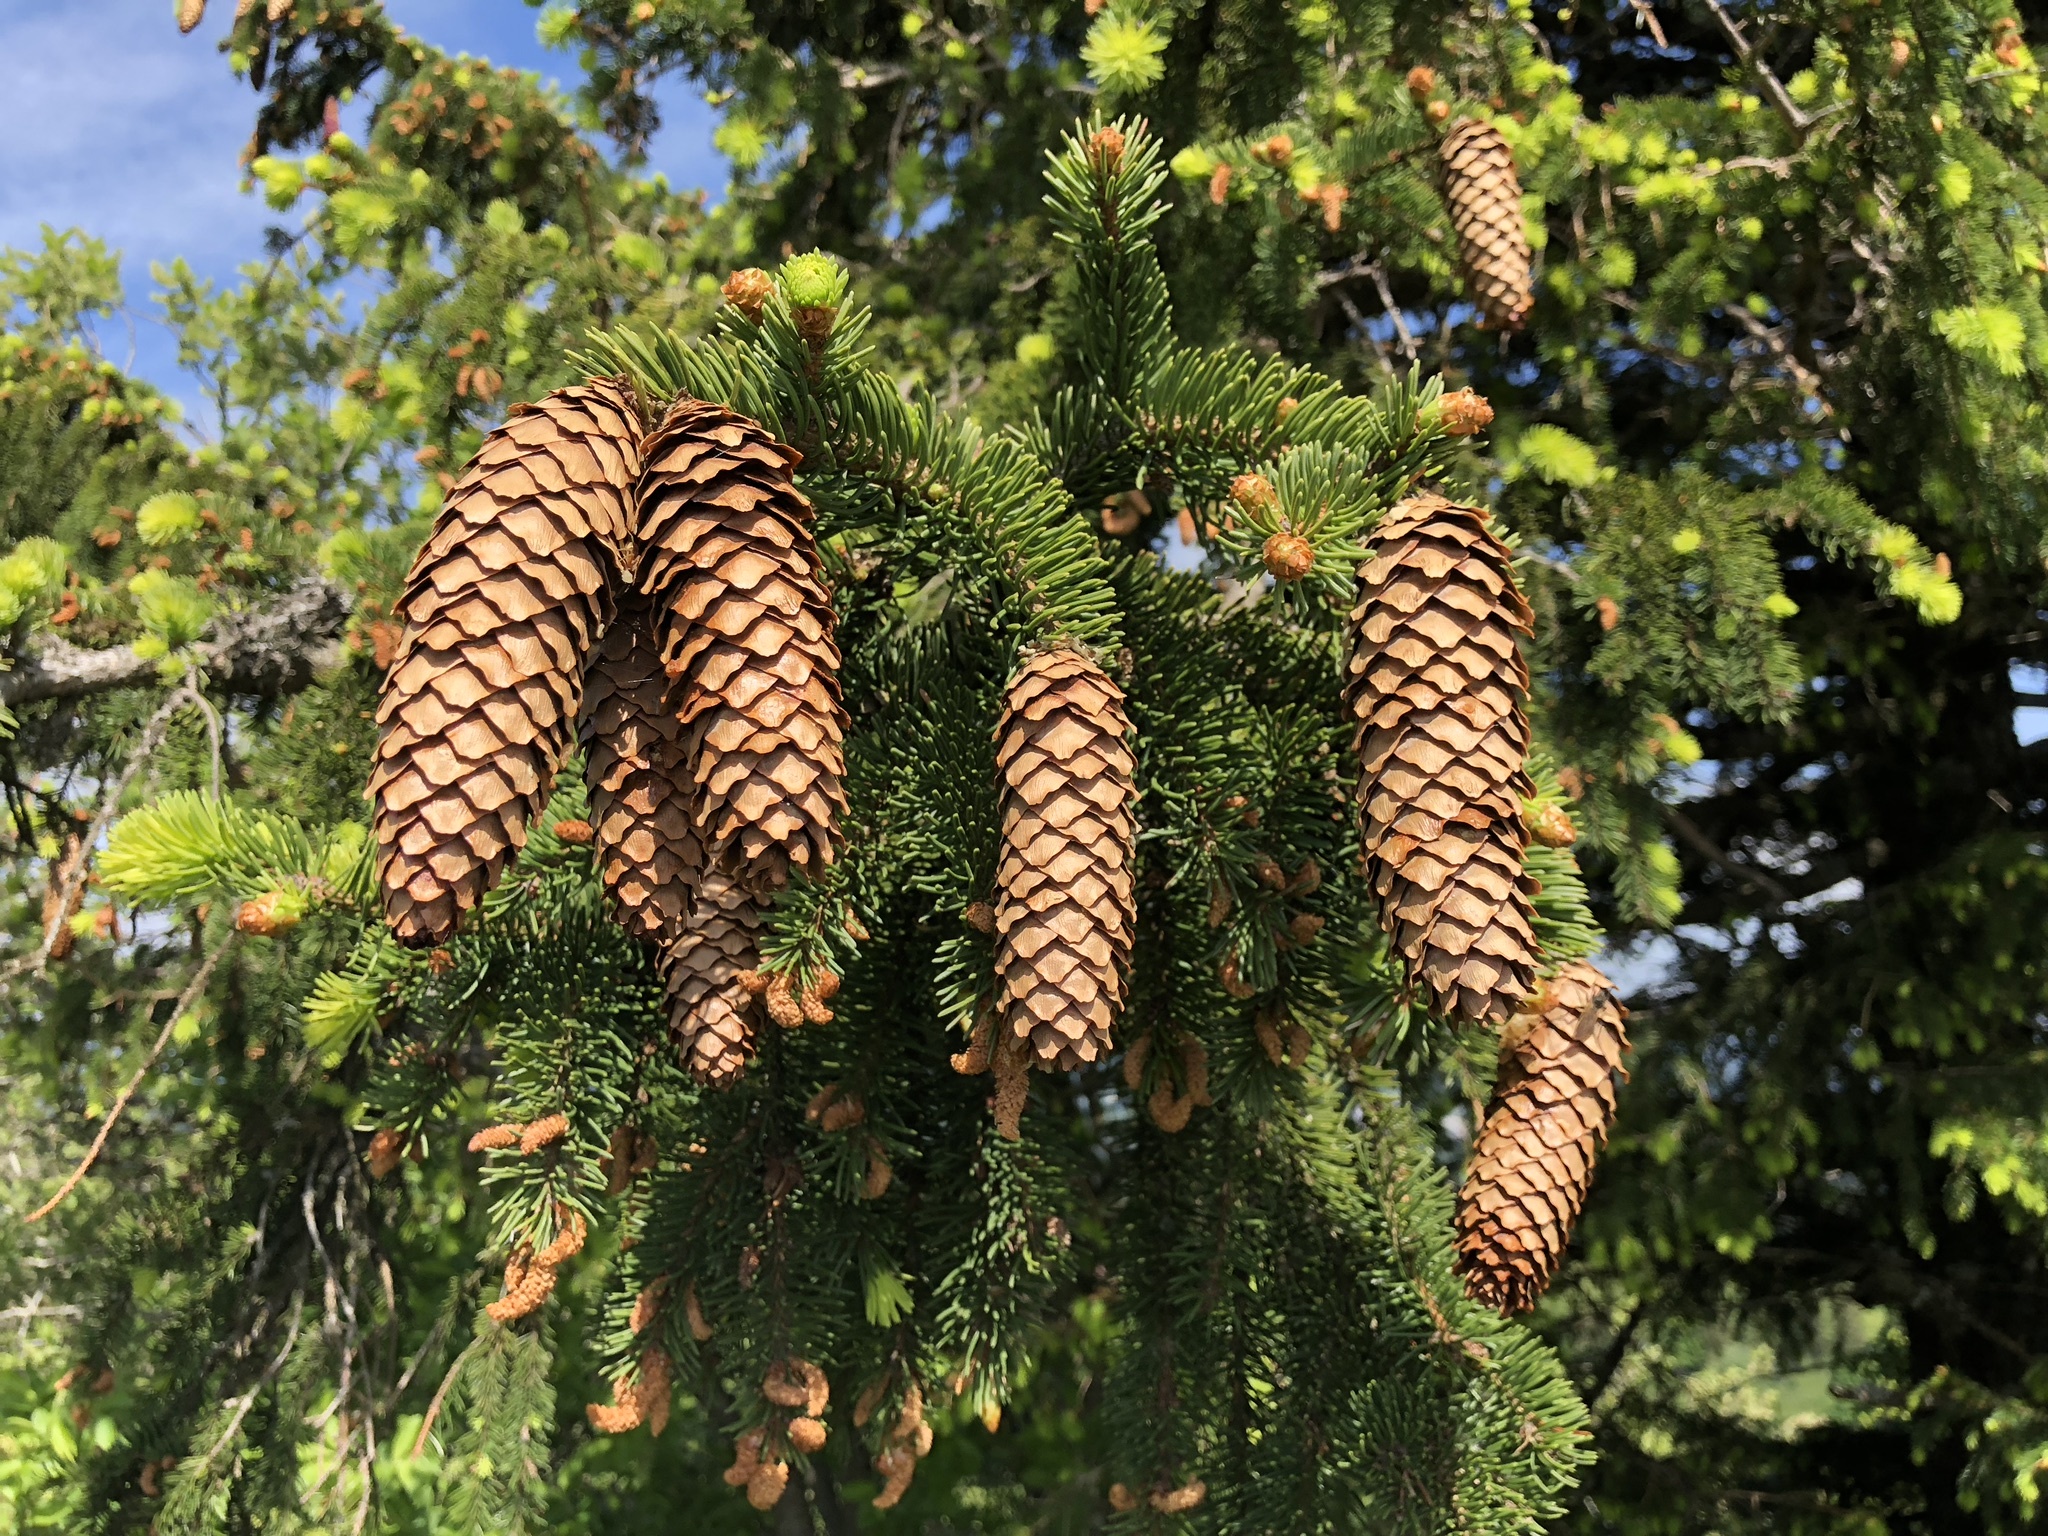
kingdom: Plantae
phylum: Tracheophyta
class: Pinopsida
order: Pinales
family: Pinaceae
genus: Picea
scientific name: Picea abies
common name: Norway spruce
